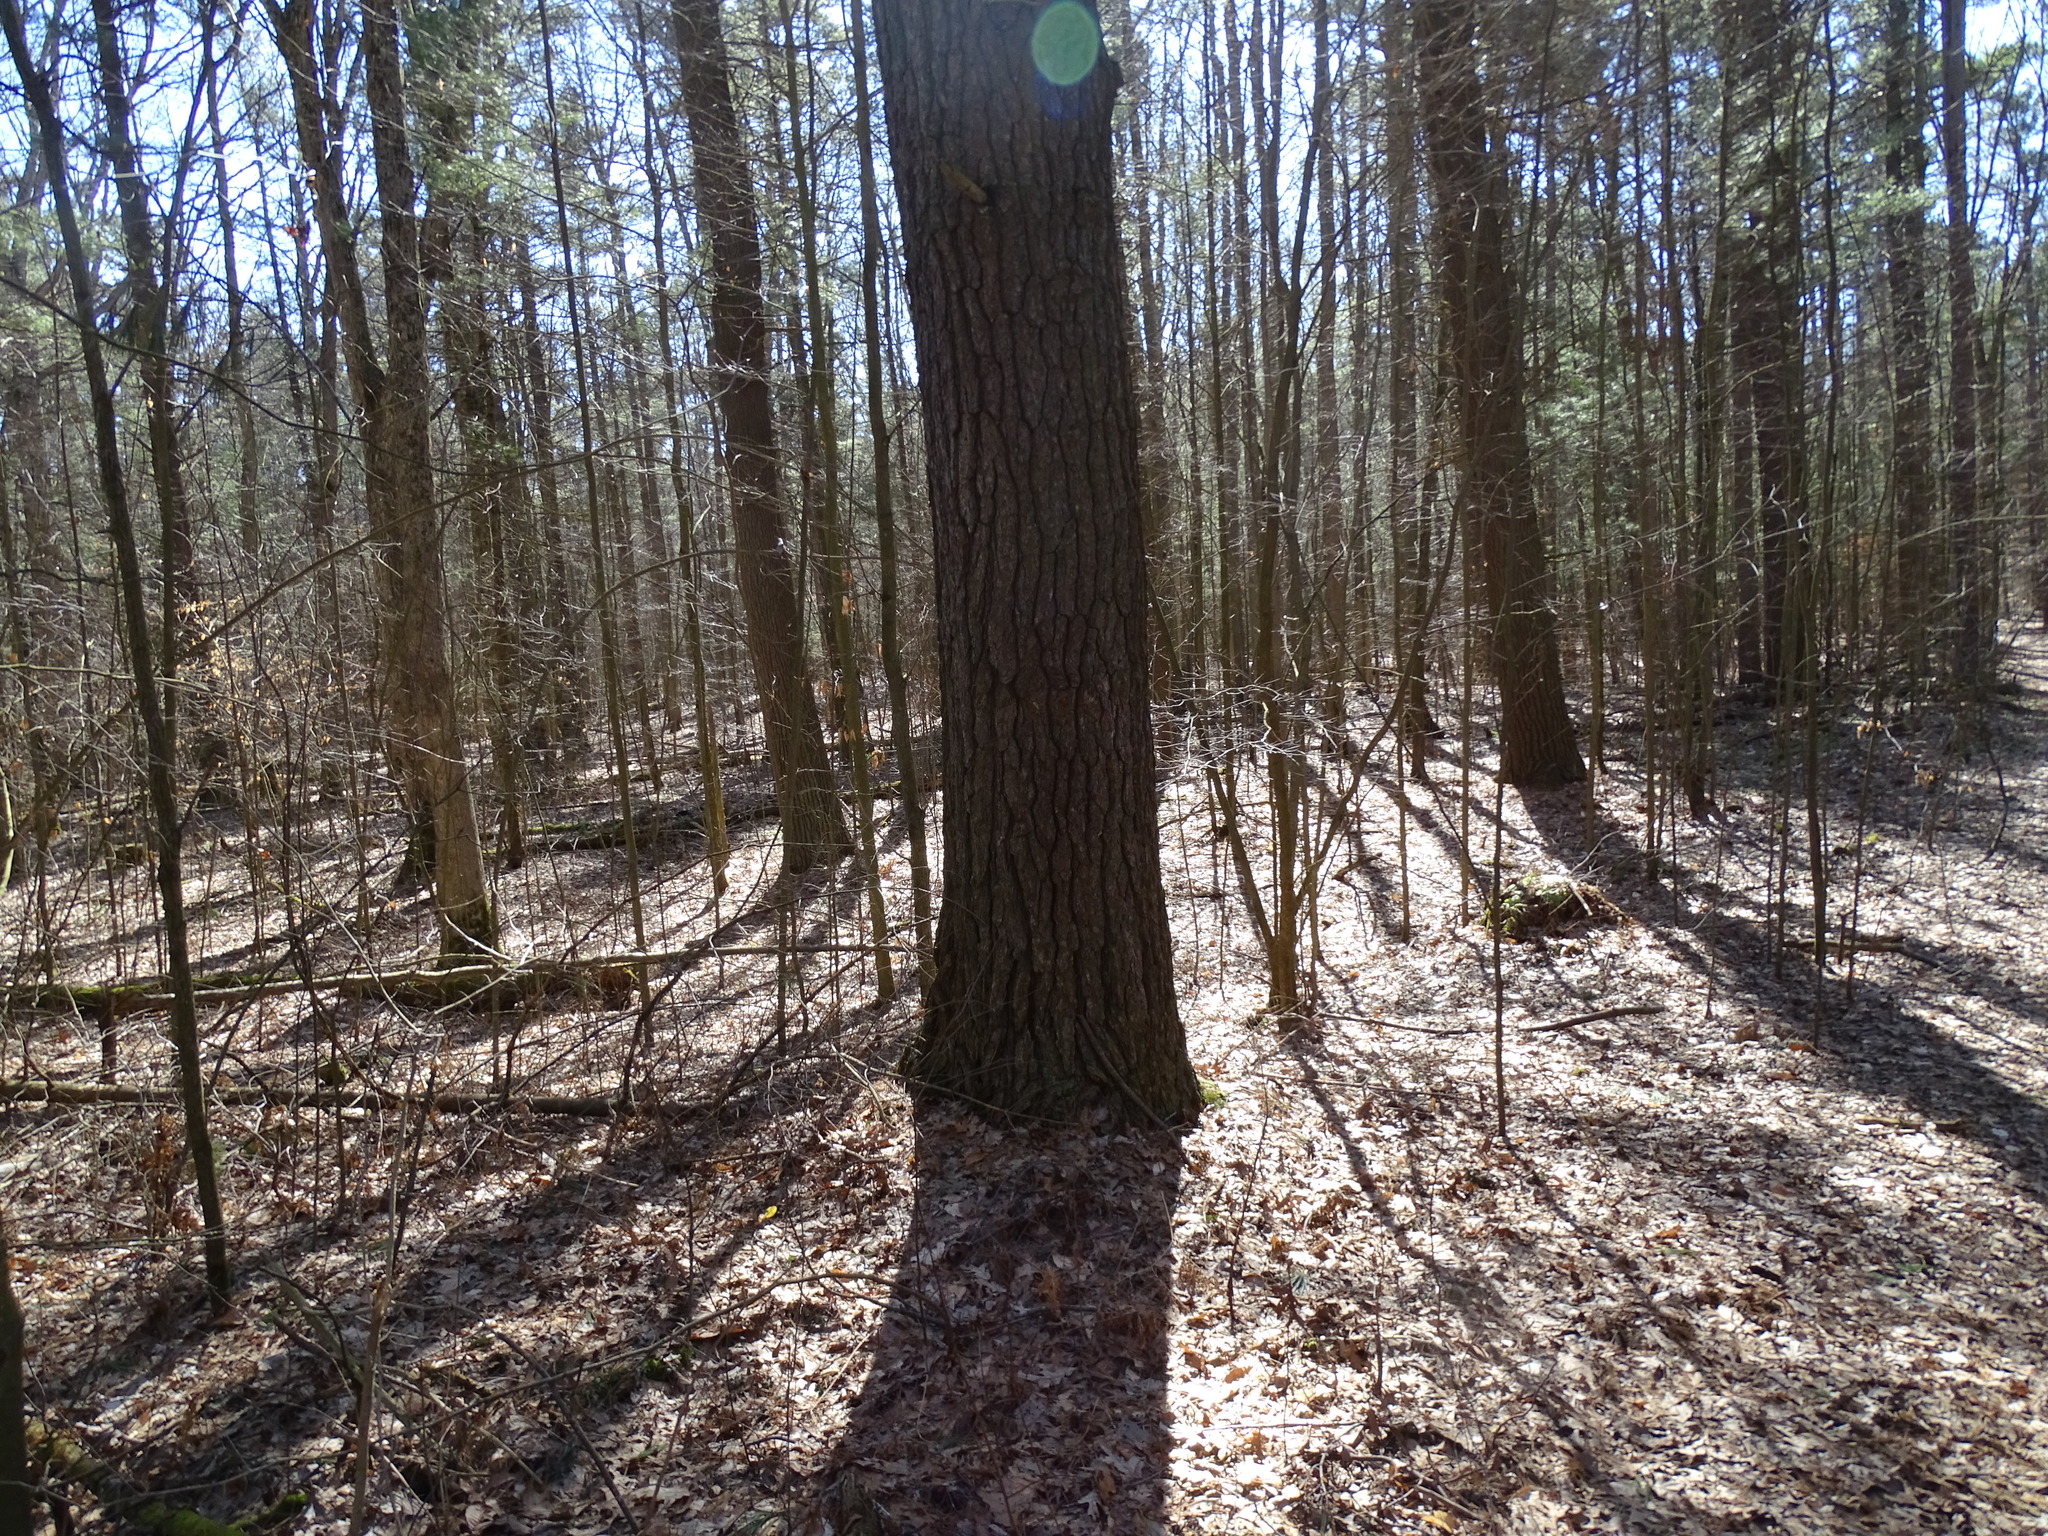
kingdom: Plantae
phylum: Tracheophyta
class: Pinopsida
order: Pinales
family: Pinaceae
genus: Pinus
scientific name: Pinus strobus
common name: Weymouth pine
